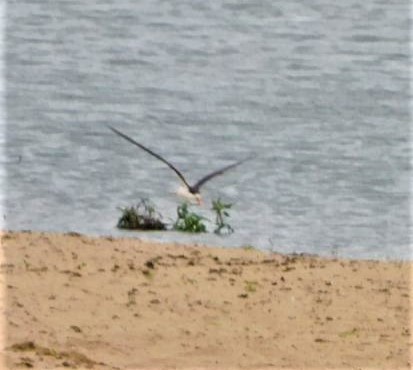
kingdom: Animalia
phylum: Chordata
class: Aves
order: Charadriiformes
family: Laridae
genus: Rynchops
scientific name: Rynchops flavirostris
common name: African skimmer
